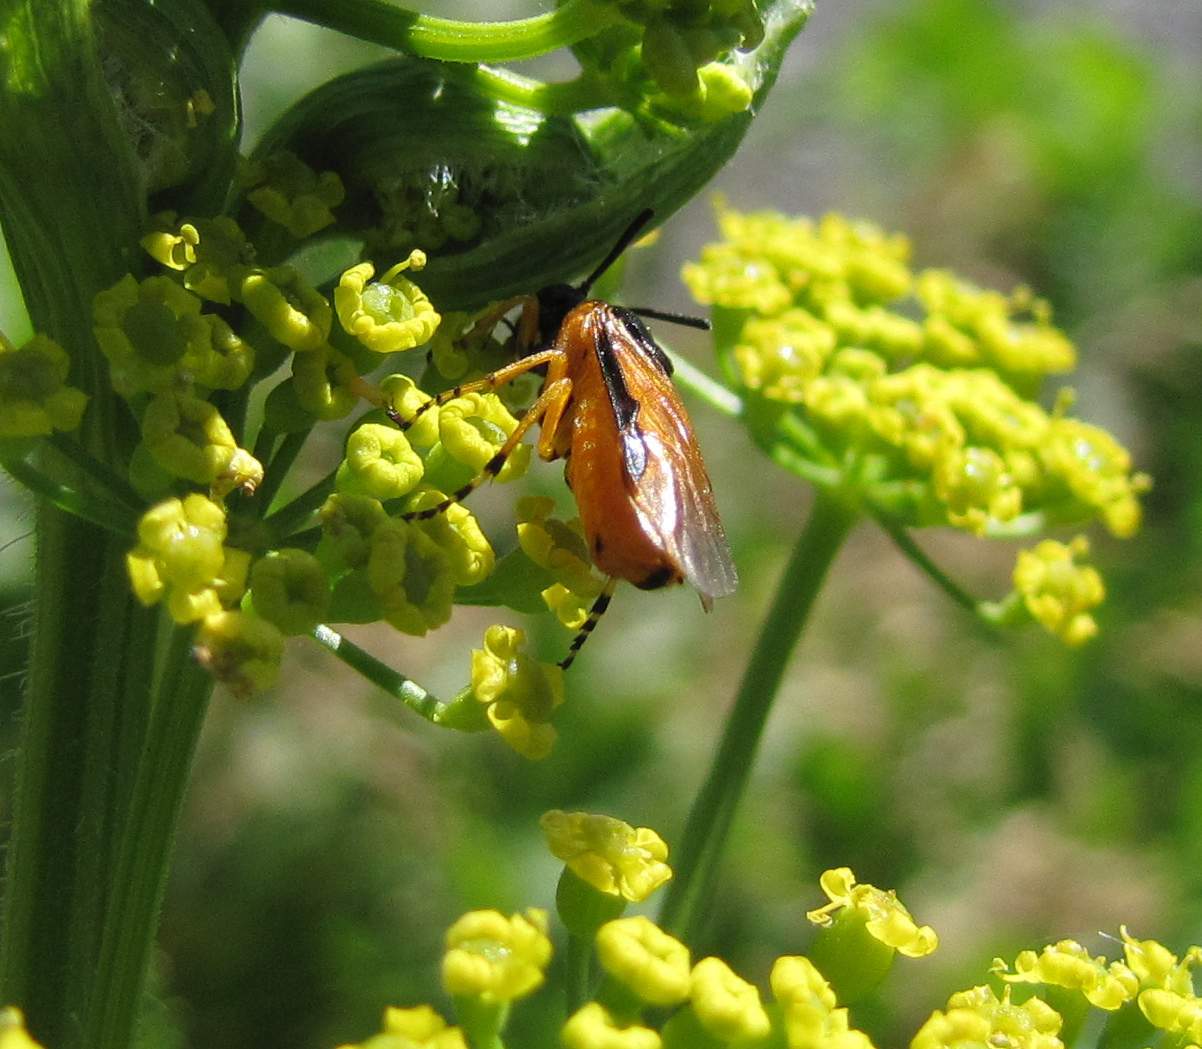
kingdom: Animalia
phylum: Arthropoda
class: Insecta
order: Hymenoptera
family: Argidae
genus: Arge
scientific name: Arge ochropus
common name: Argid sawfly
